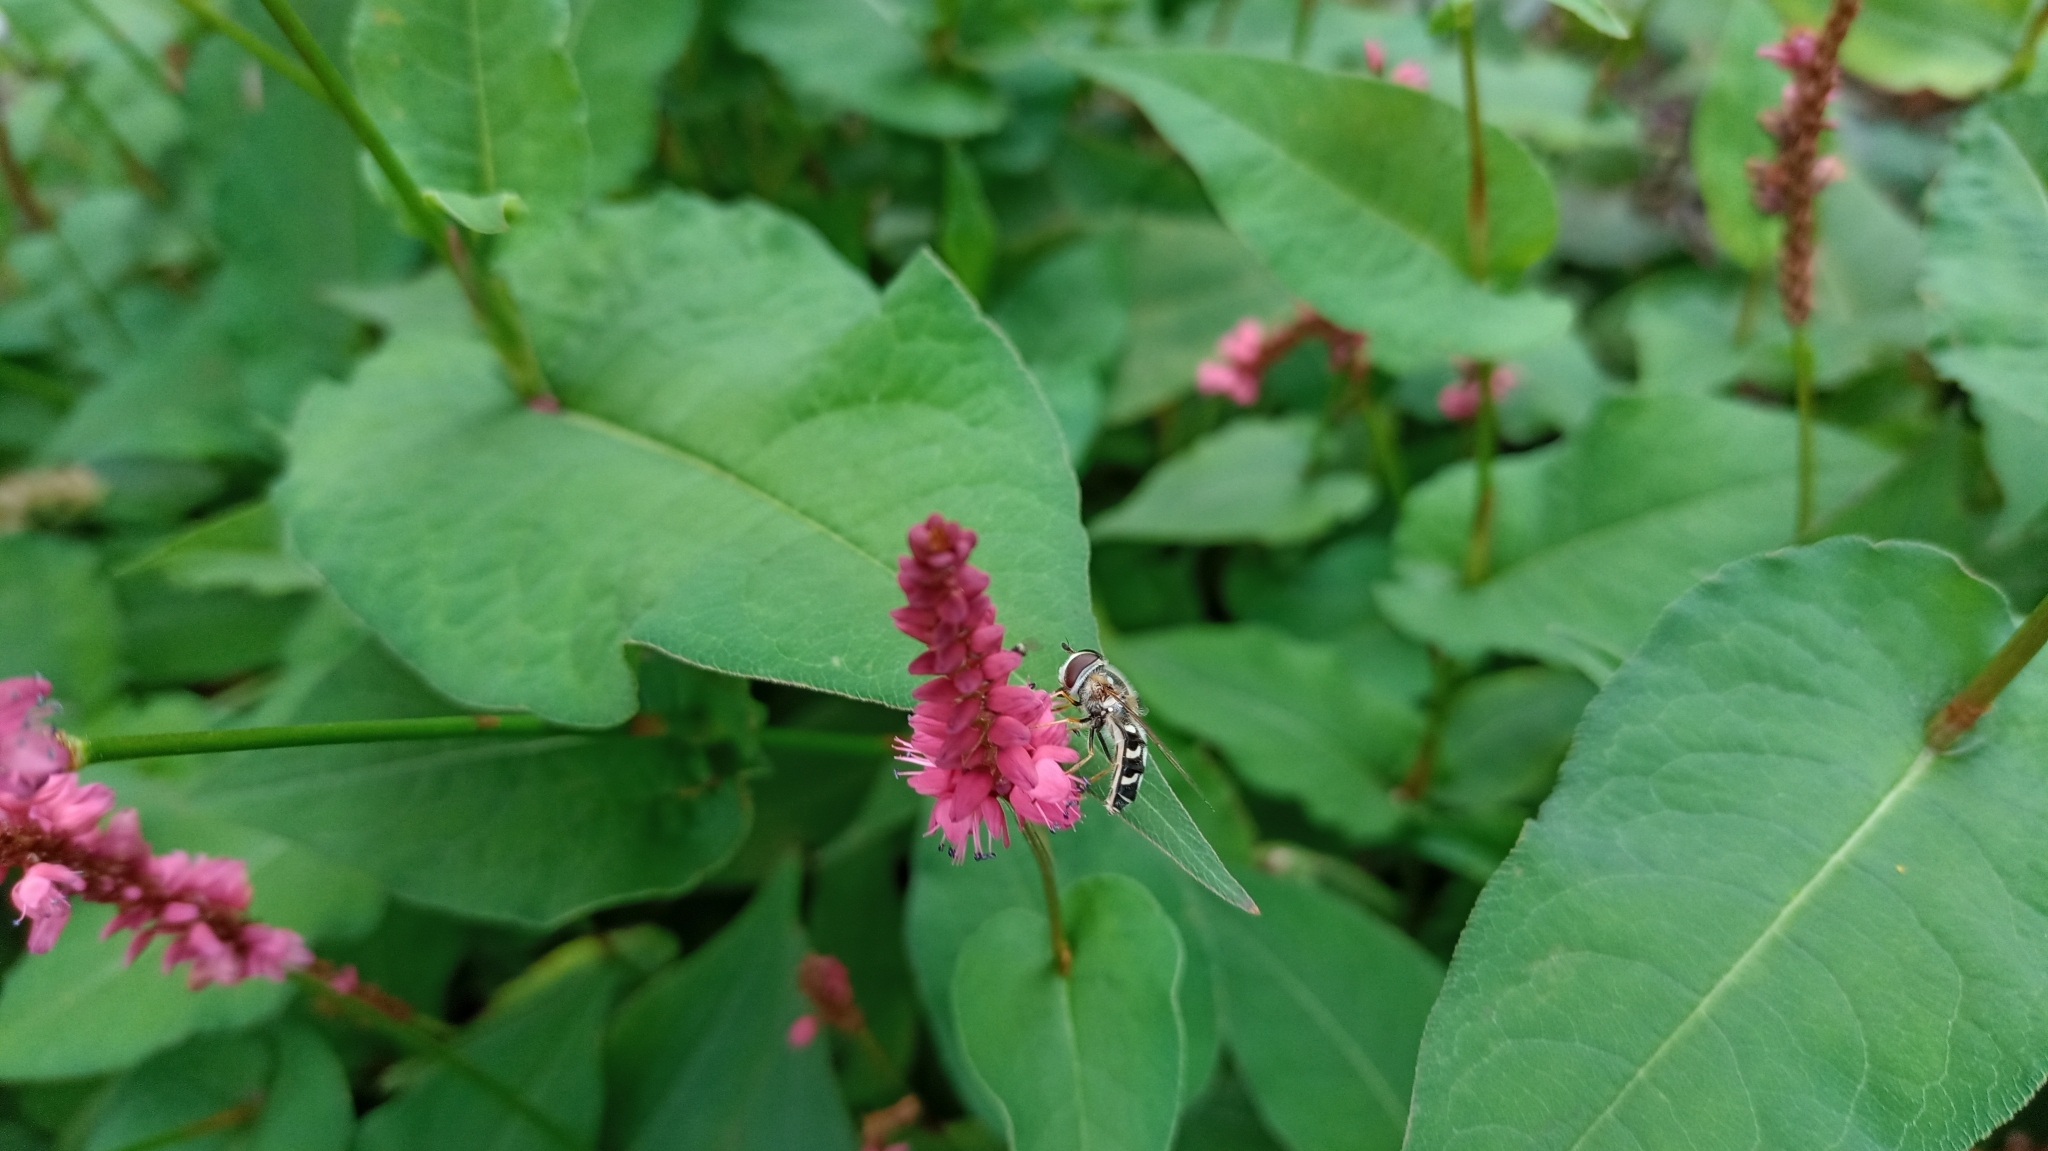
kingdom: Animalia
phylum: Arthropoda
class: Insecta
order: Diptera
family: Syrphidae
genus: Scaeva
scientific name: Scaeva pyrastri
